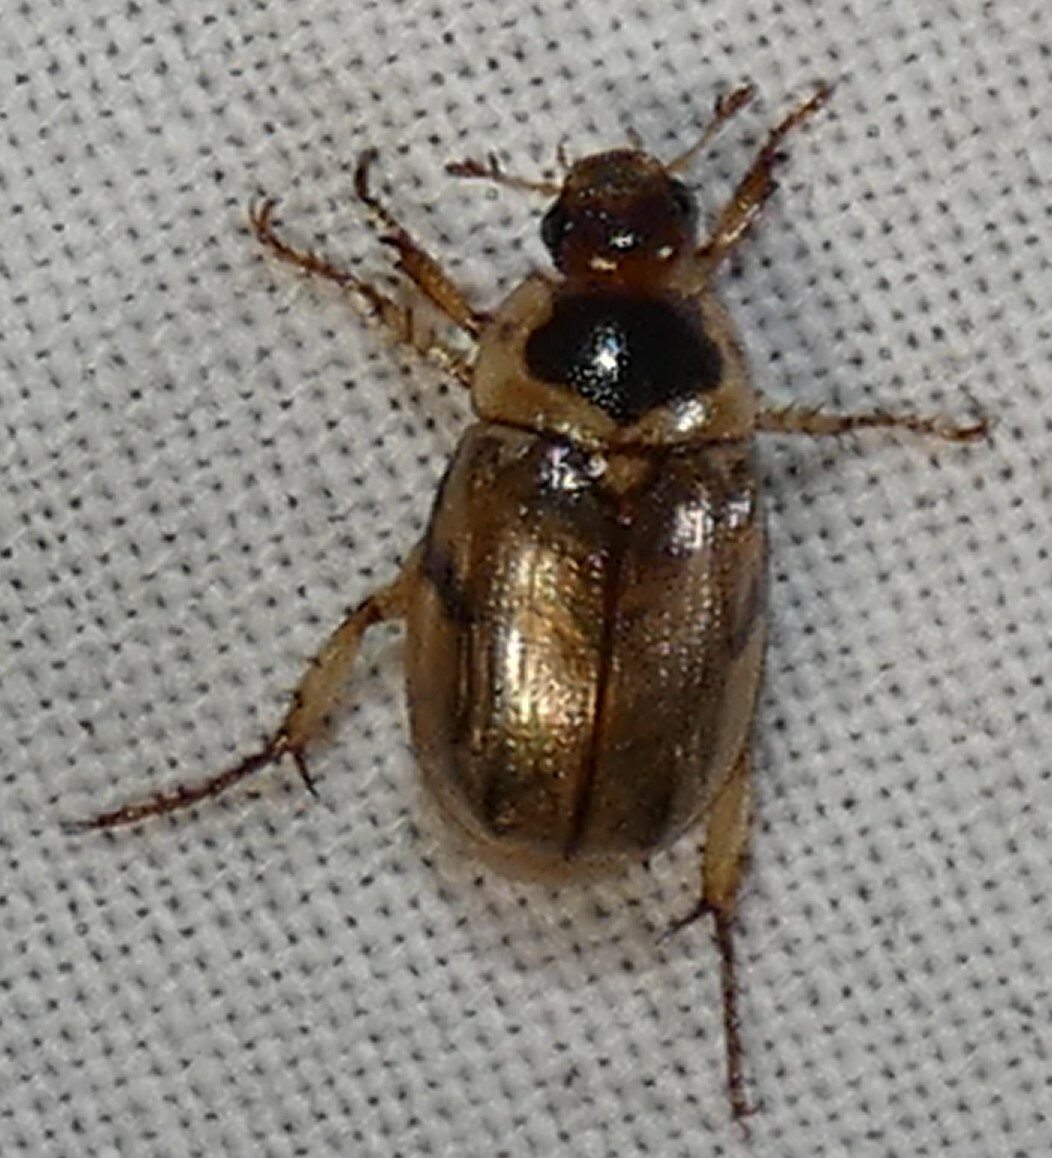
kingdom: Animalia
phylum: Arthropoda
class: Insecta
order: Coleoptera
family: Scarabaeidae
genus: Anomala
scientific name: Anomala innuba
